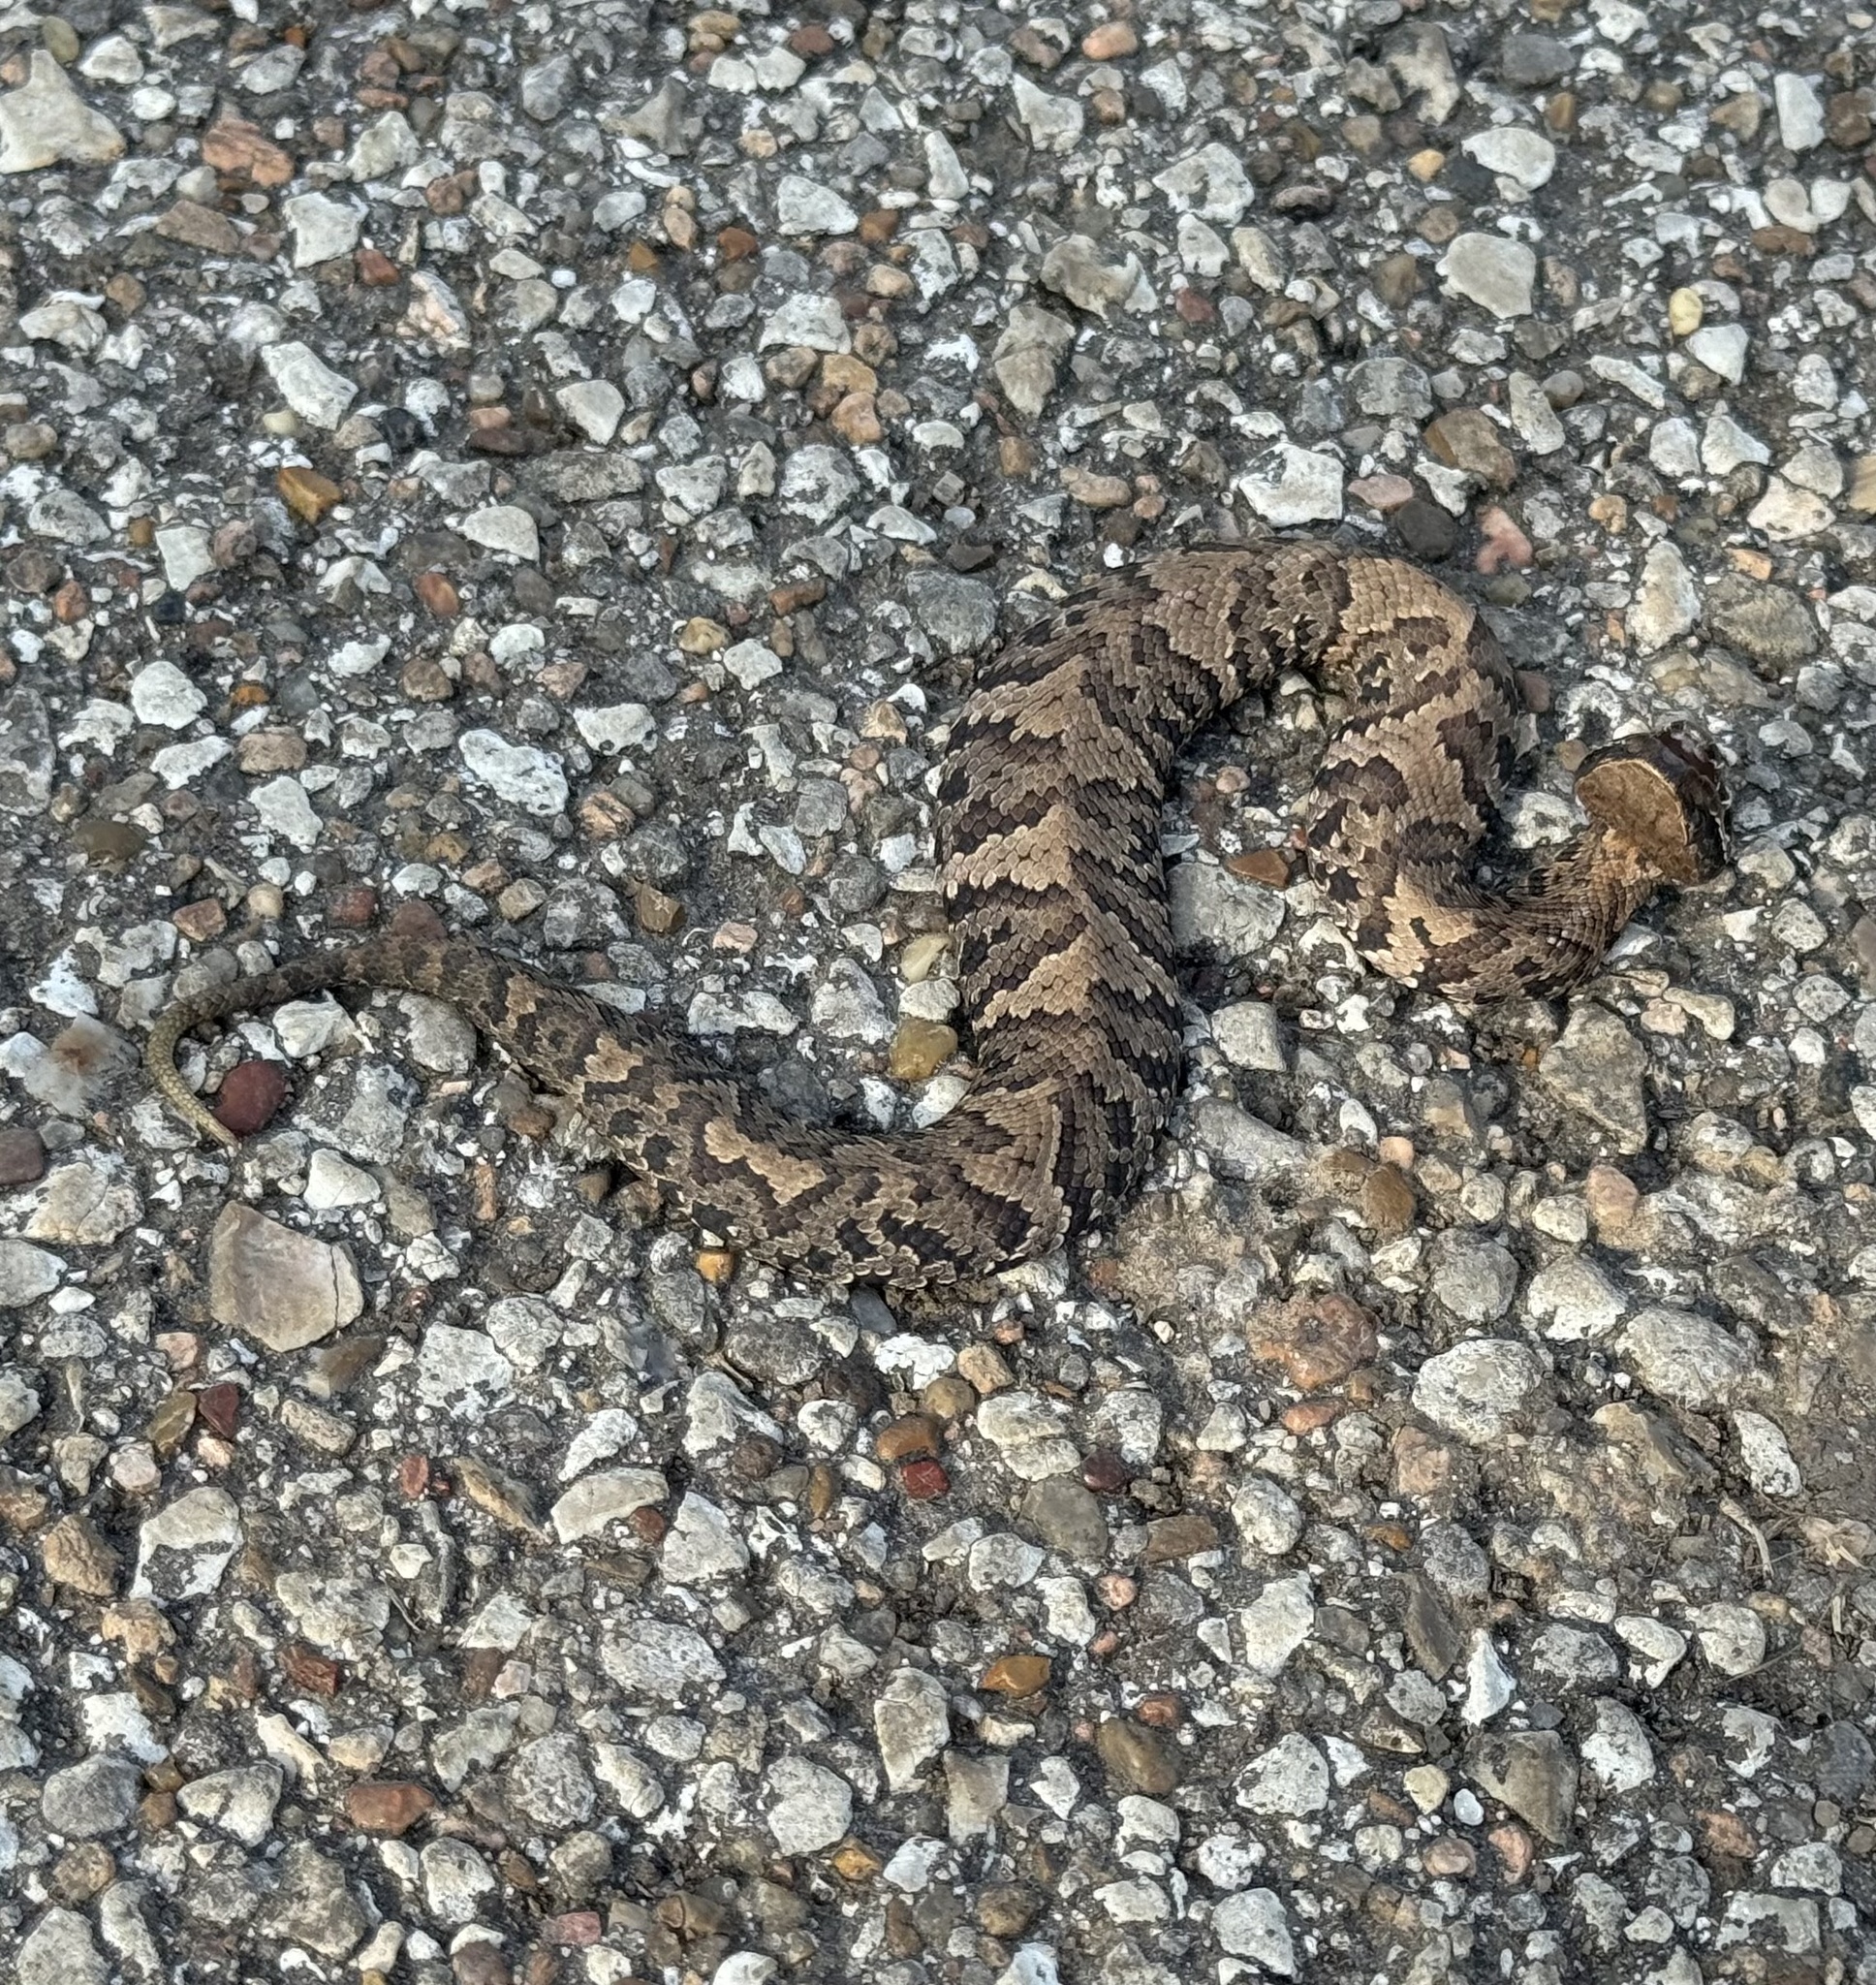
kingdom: Animalia
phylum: Chordata
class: Squamata
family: Viperidae
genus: Agkistrodon
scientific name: Agkistrodon piscivorus
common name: Cottonmouth
